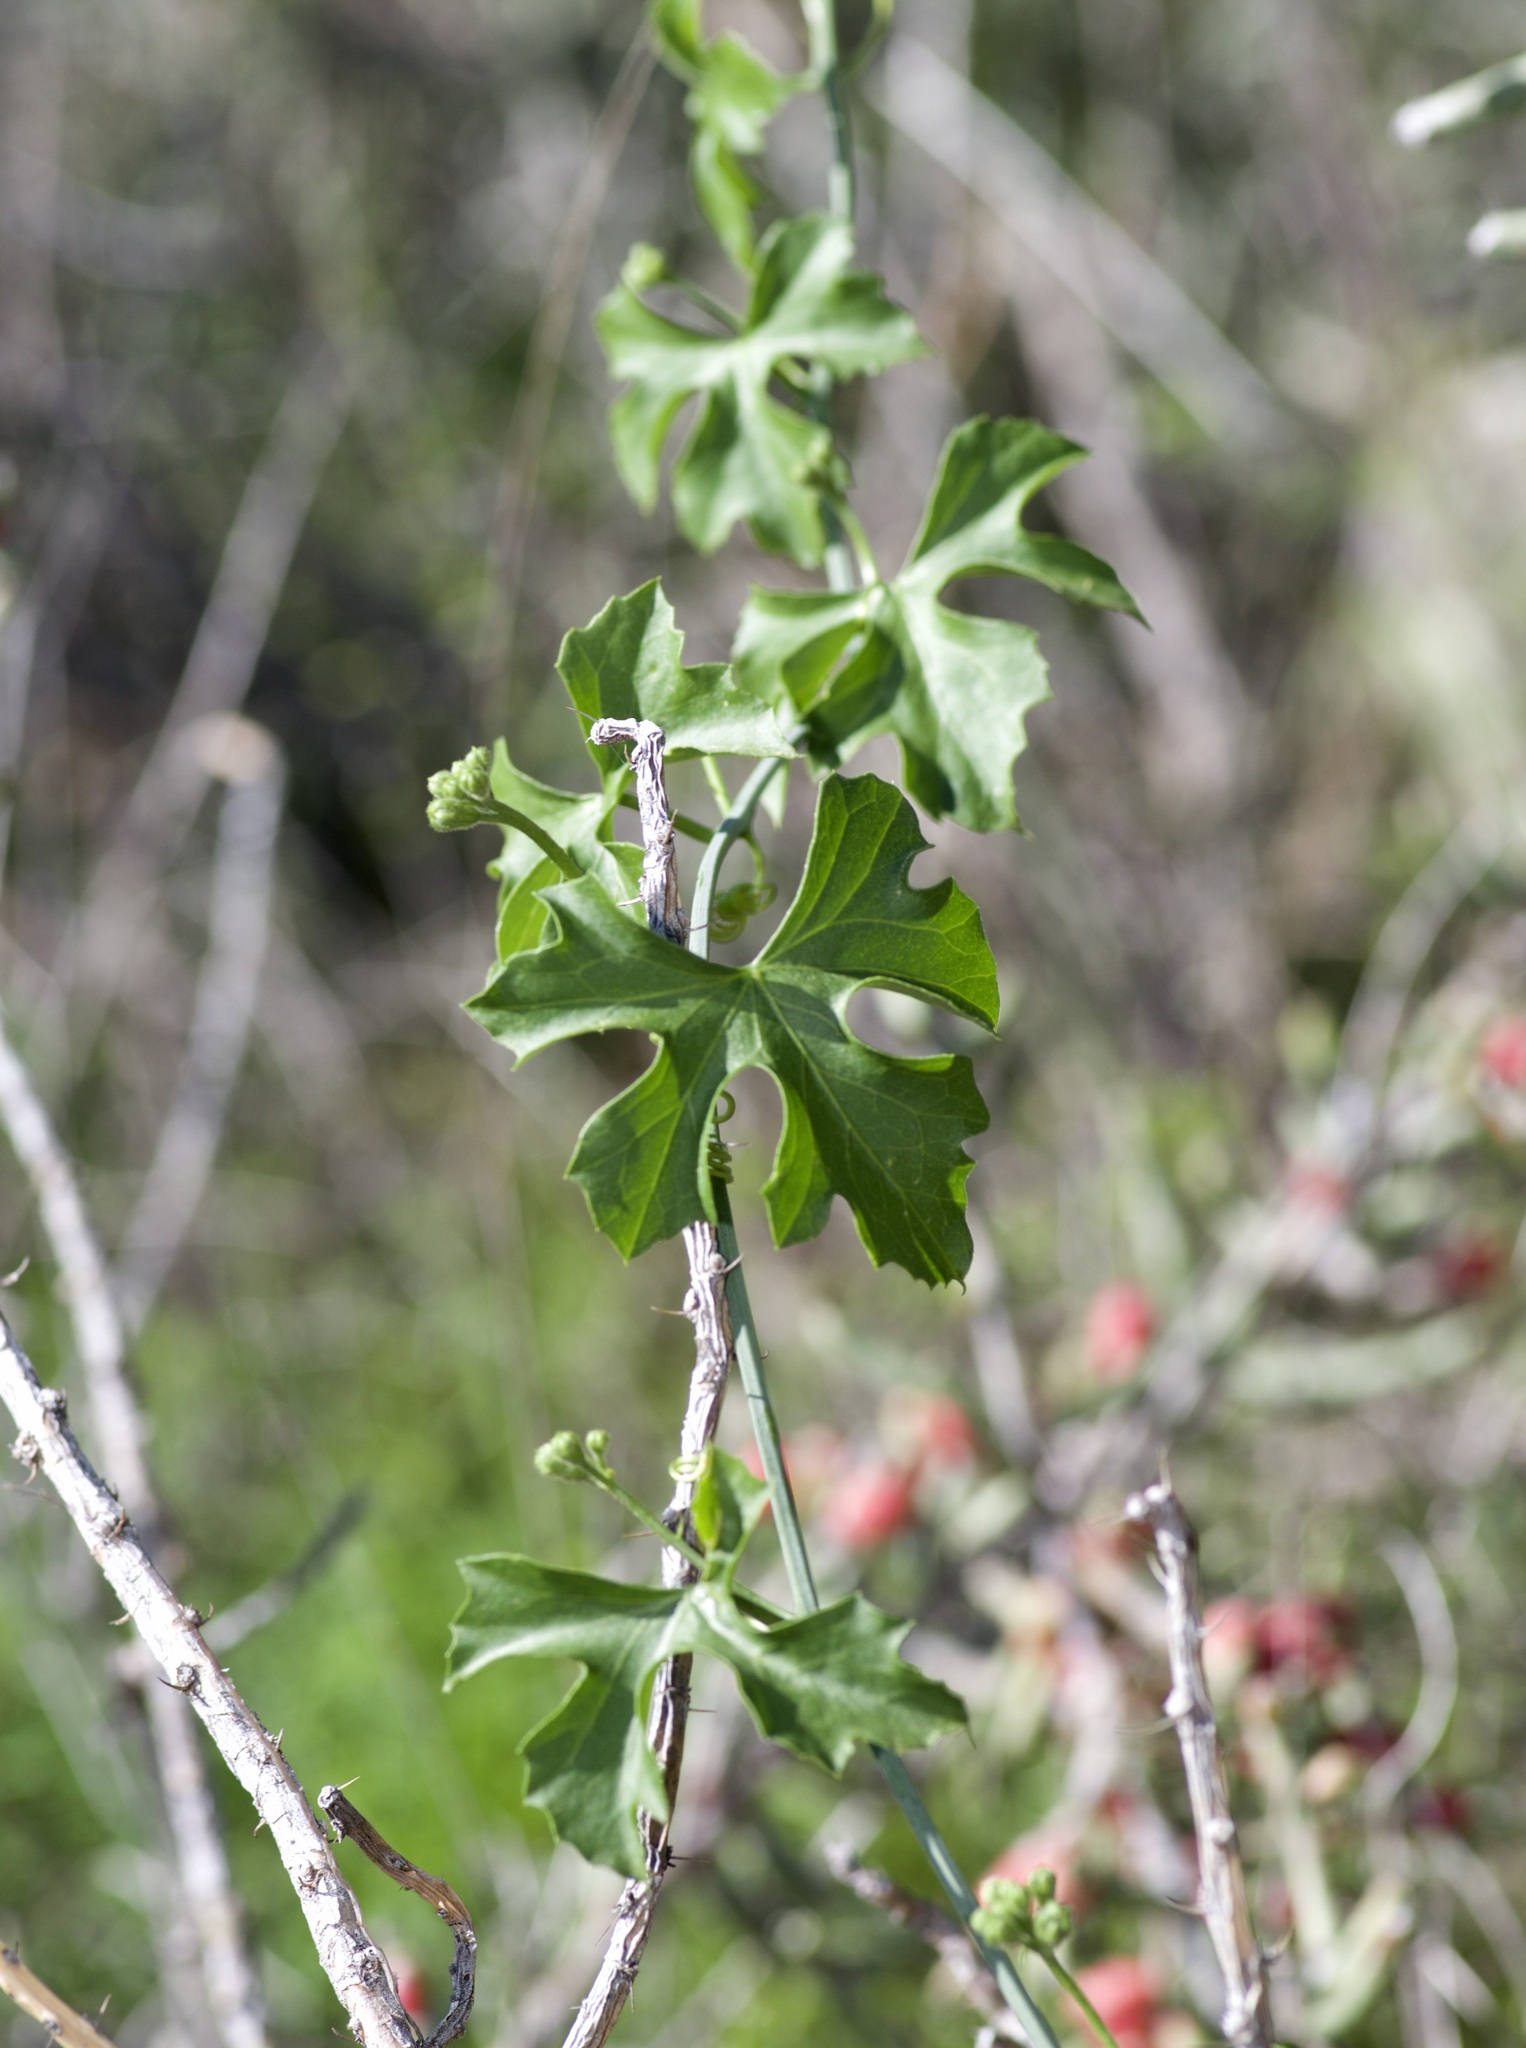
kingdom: Plantae
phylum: Tracheophyta
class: Magnoliopsida
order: Cucurbitales
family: Cucurbitaceae
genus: Ibervillea
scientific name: Ibervillea lindheimeri
